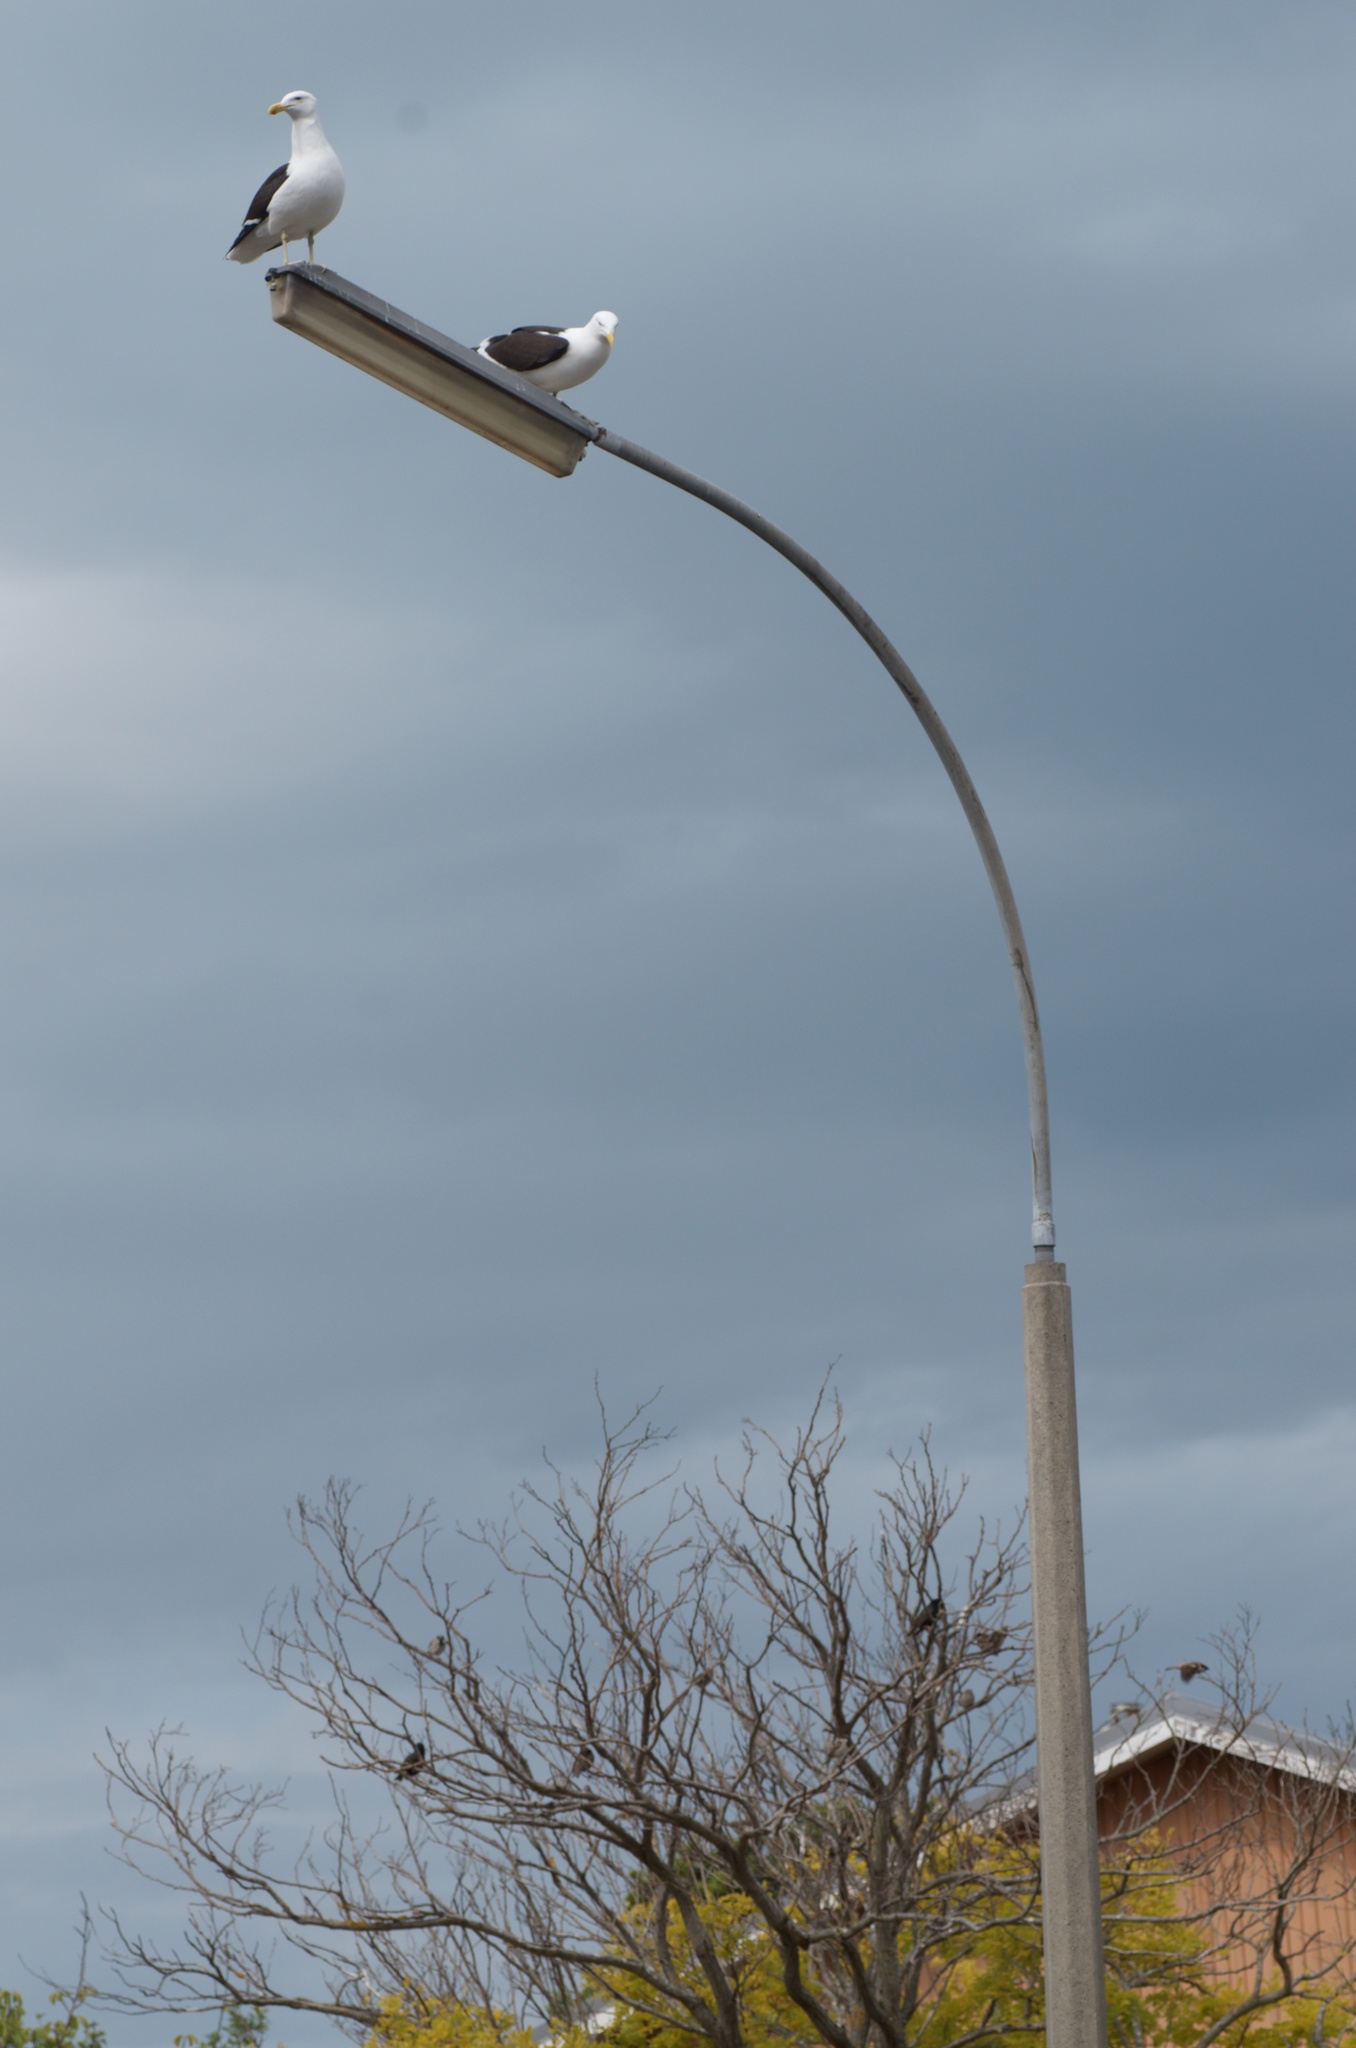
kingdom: Animalia
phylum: Chordata
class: Aves
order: Charadriiformes
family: Laridae
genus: Larus
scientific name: Larus dominicanus
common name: Kelp gull
